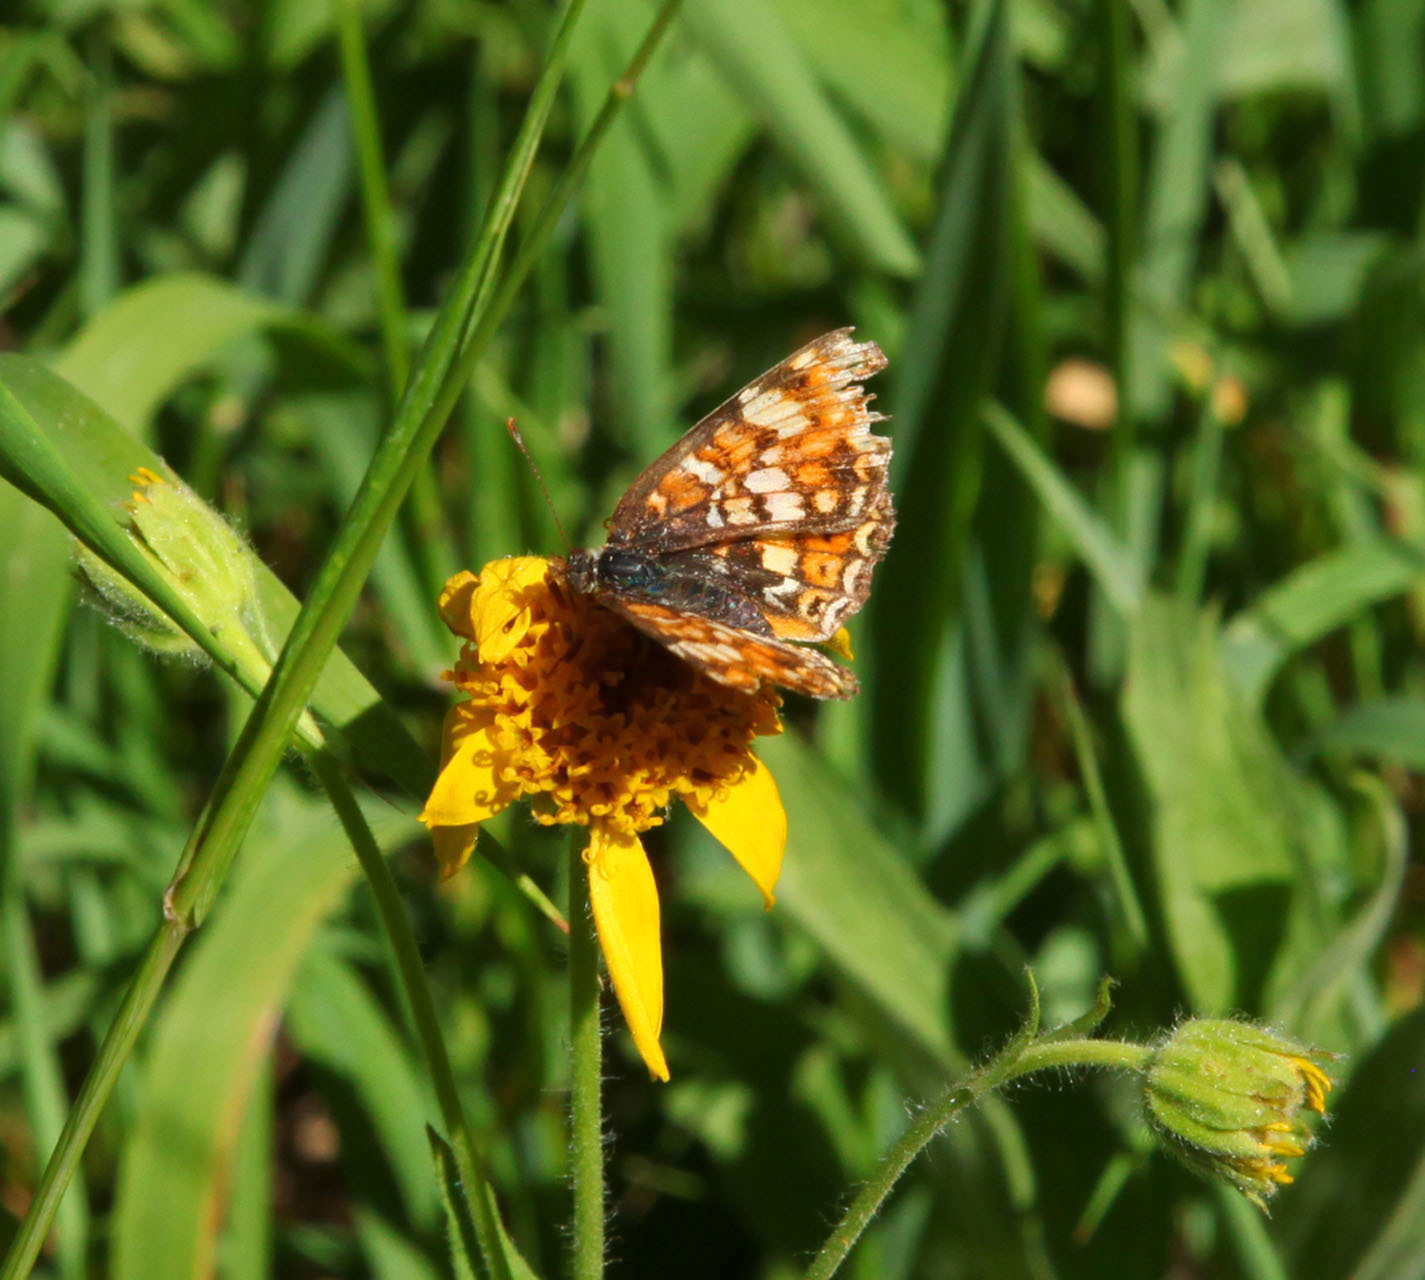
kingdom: Animalia
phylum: Arthropoda
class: Insecta
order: Lepidoptera
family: Nymphalidae
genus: Phyciodes
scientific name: Phyciodes tharos
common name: Pearl crescent
